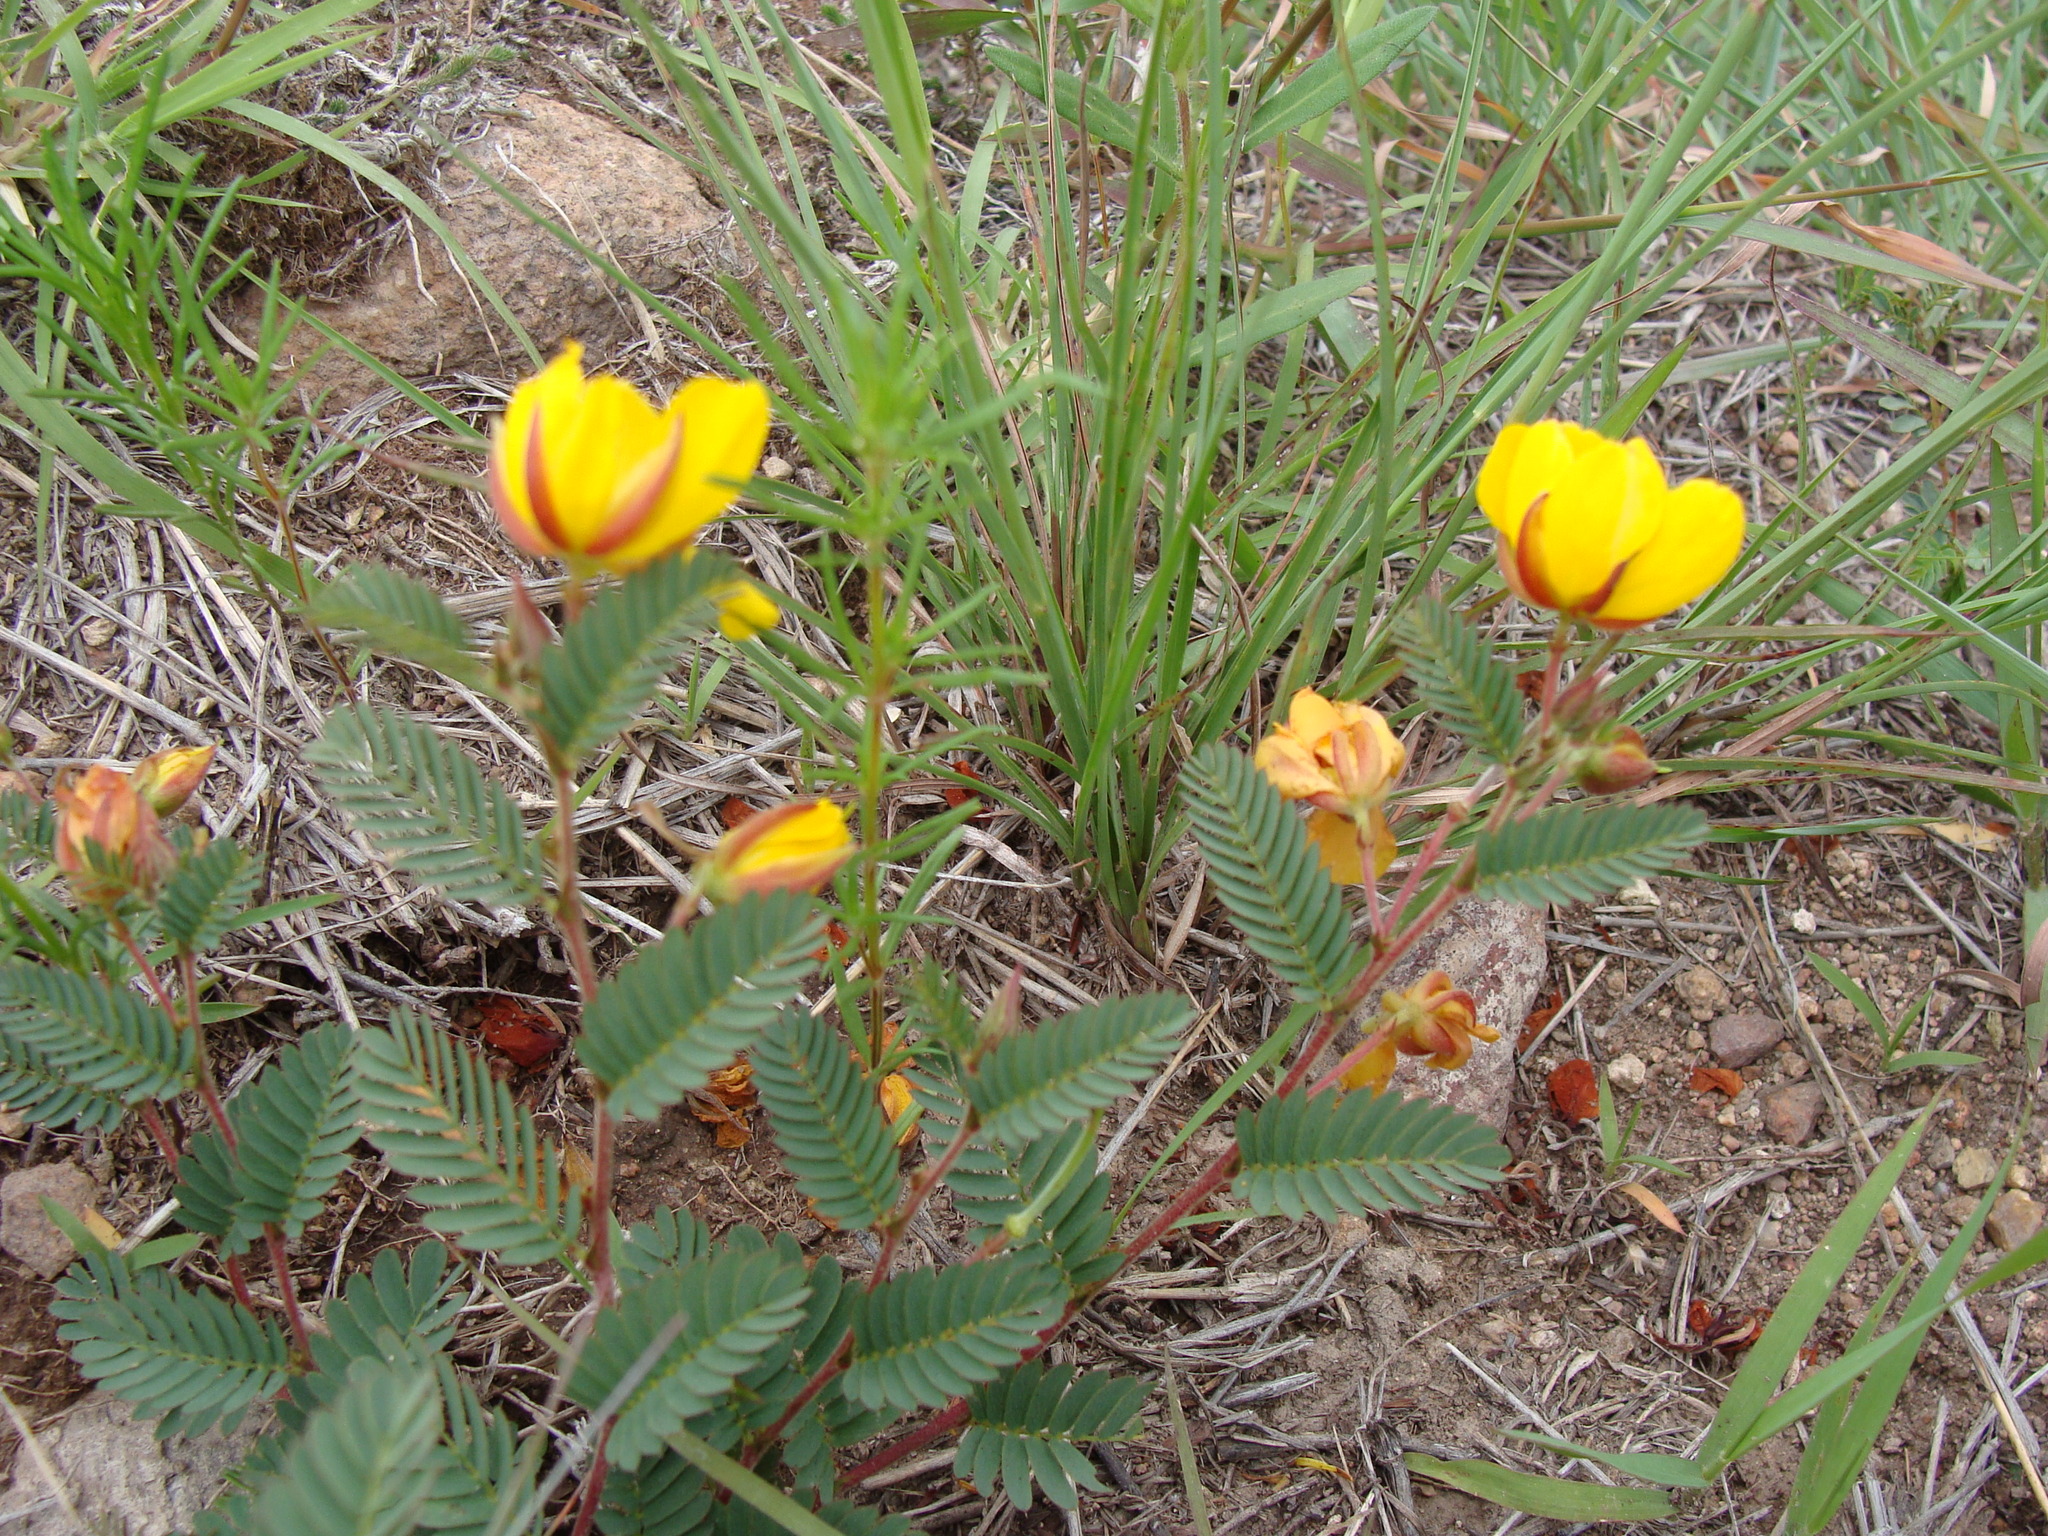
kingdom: Plantae
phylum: Tracheophyta
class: Magnoliopsida
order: Fabales
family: Fabaceae
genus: Chamaecrista
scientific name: Chamaecrista flexuosa
